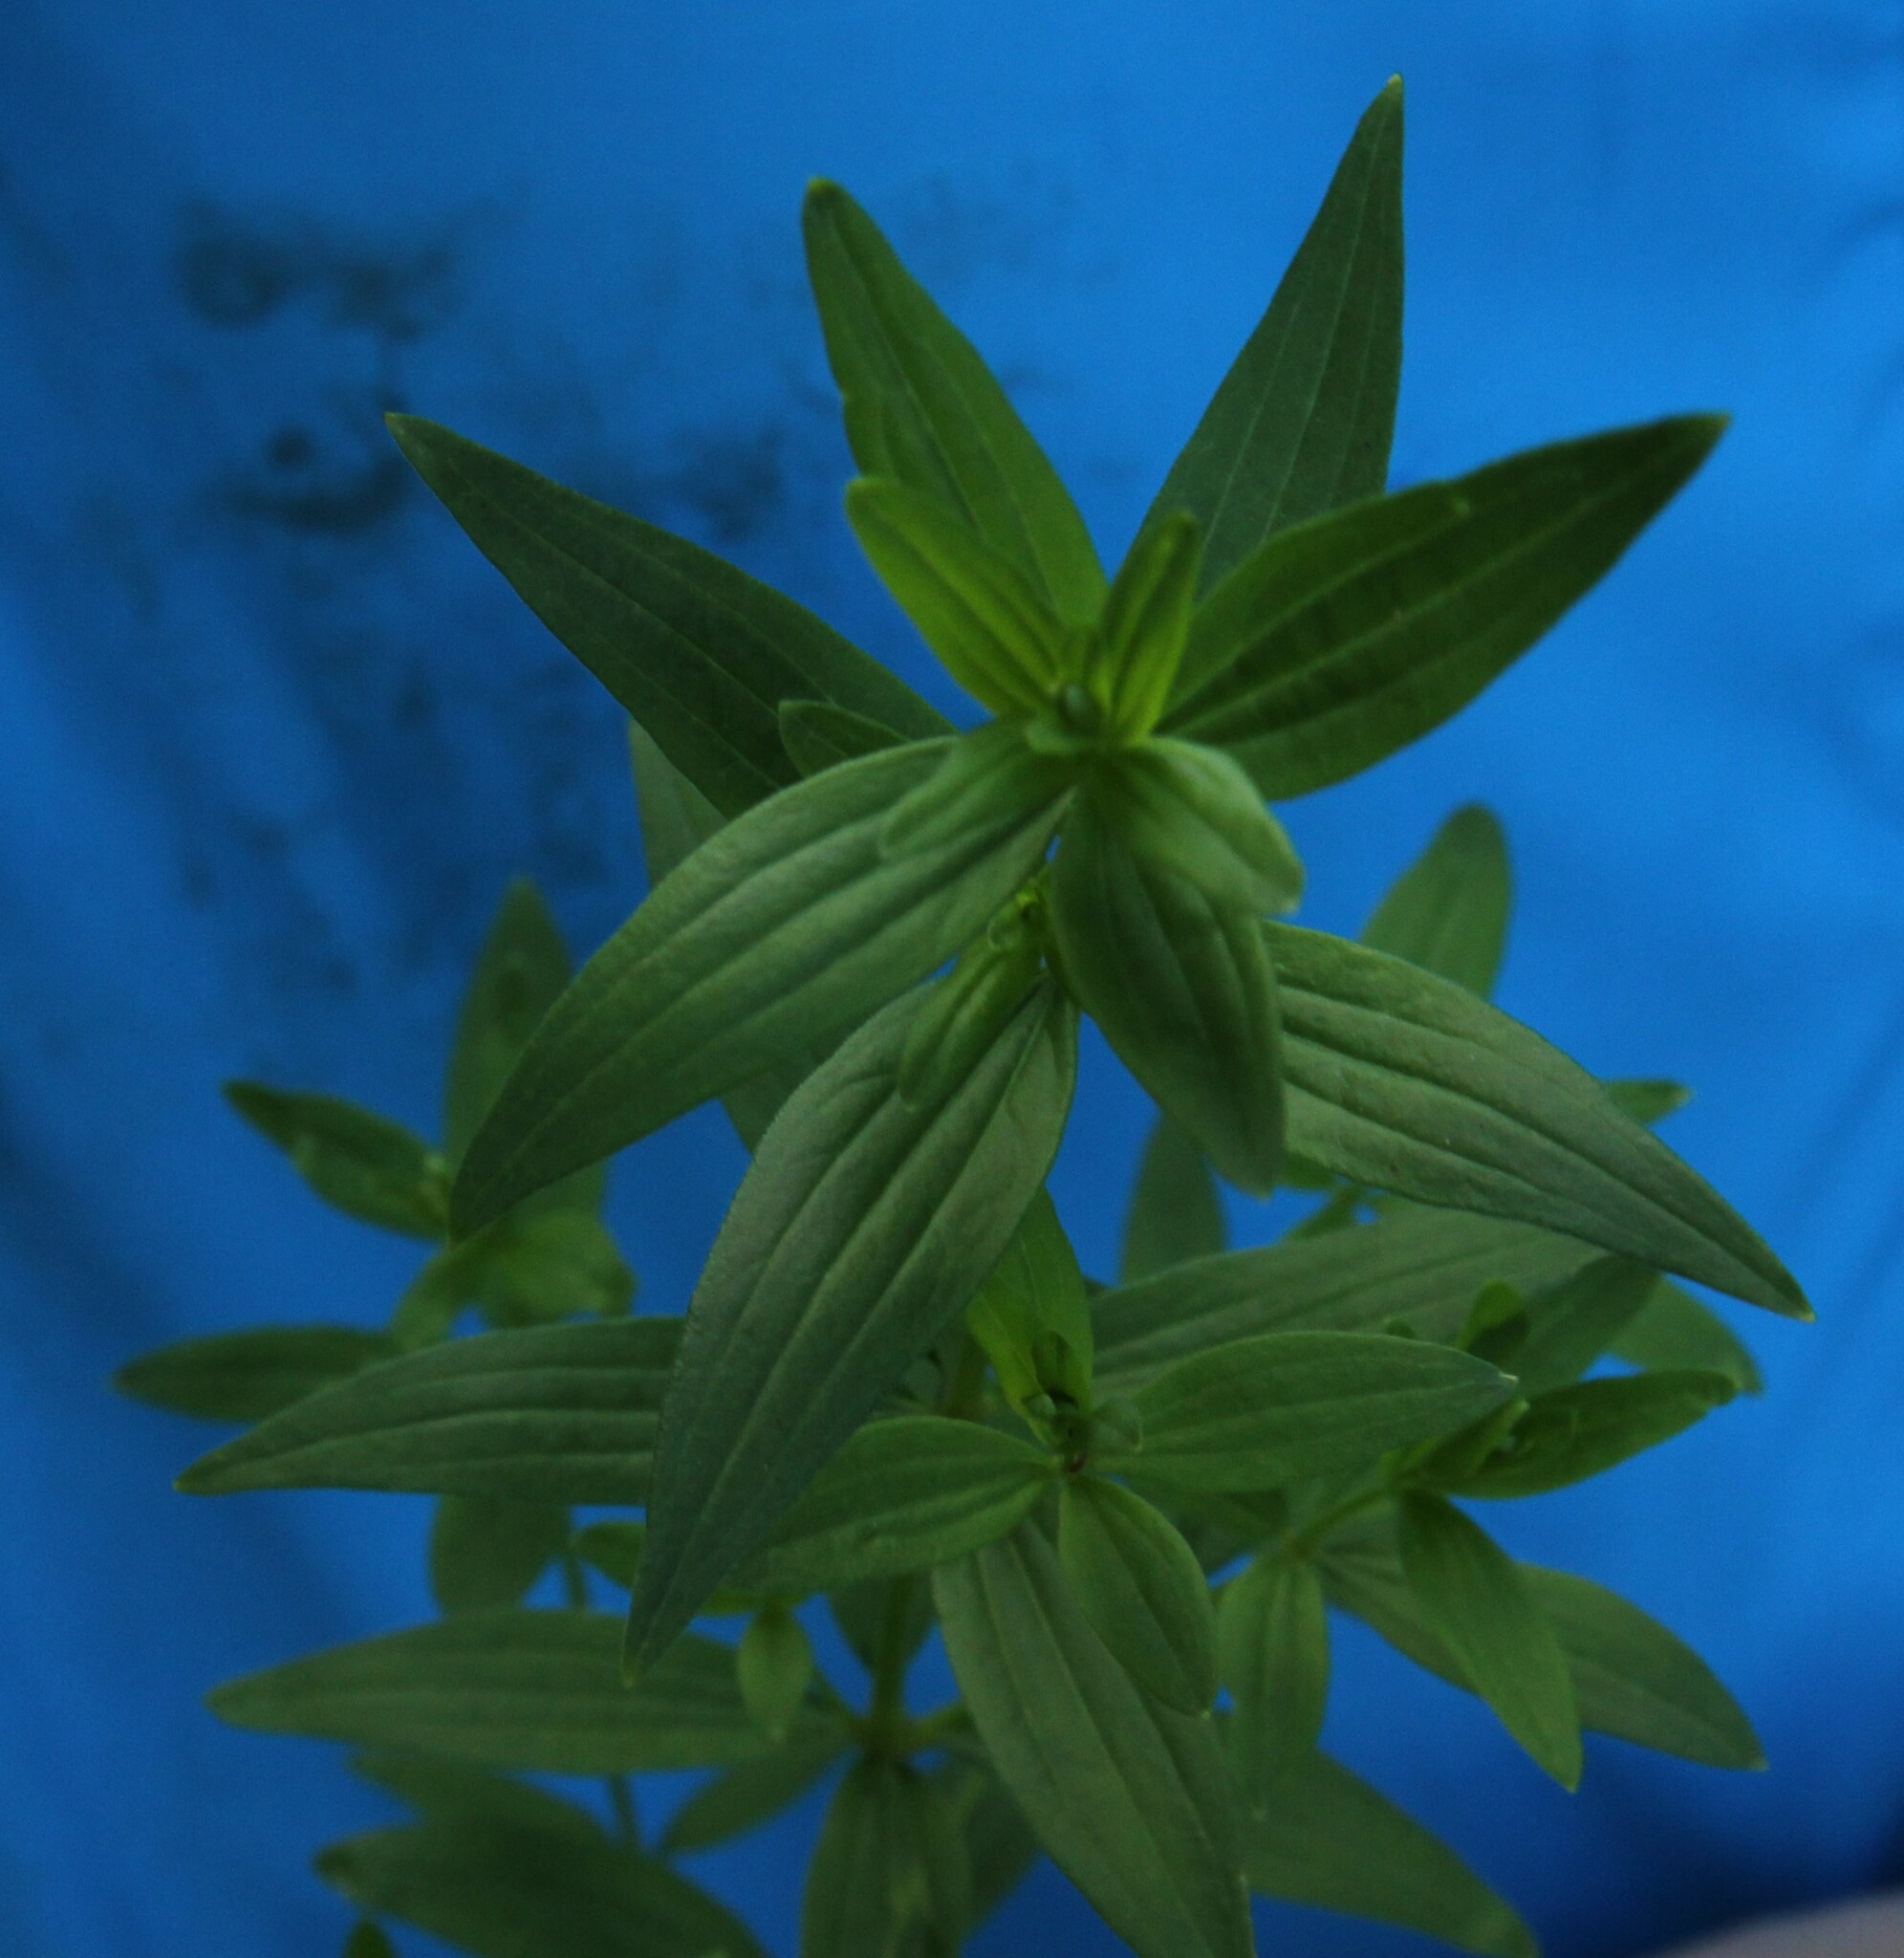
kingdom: Plantae
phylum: Tracheophyta
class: Magnoliopsida
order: Gentianales
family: Rubiaceae
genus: Galium
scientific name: Galium boreale
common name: Northern bedstraw
